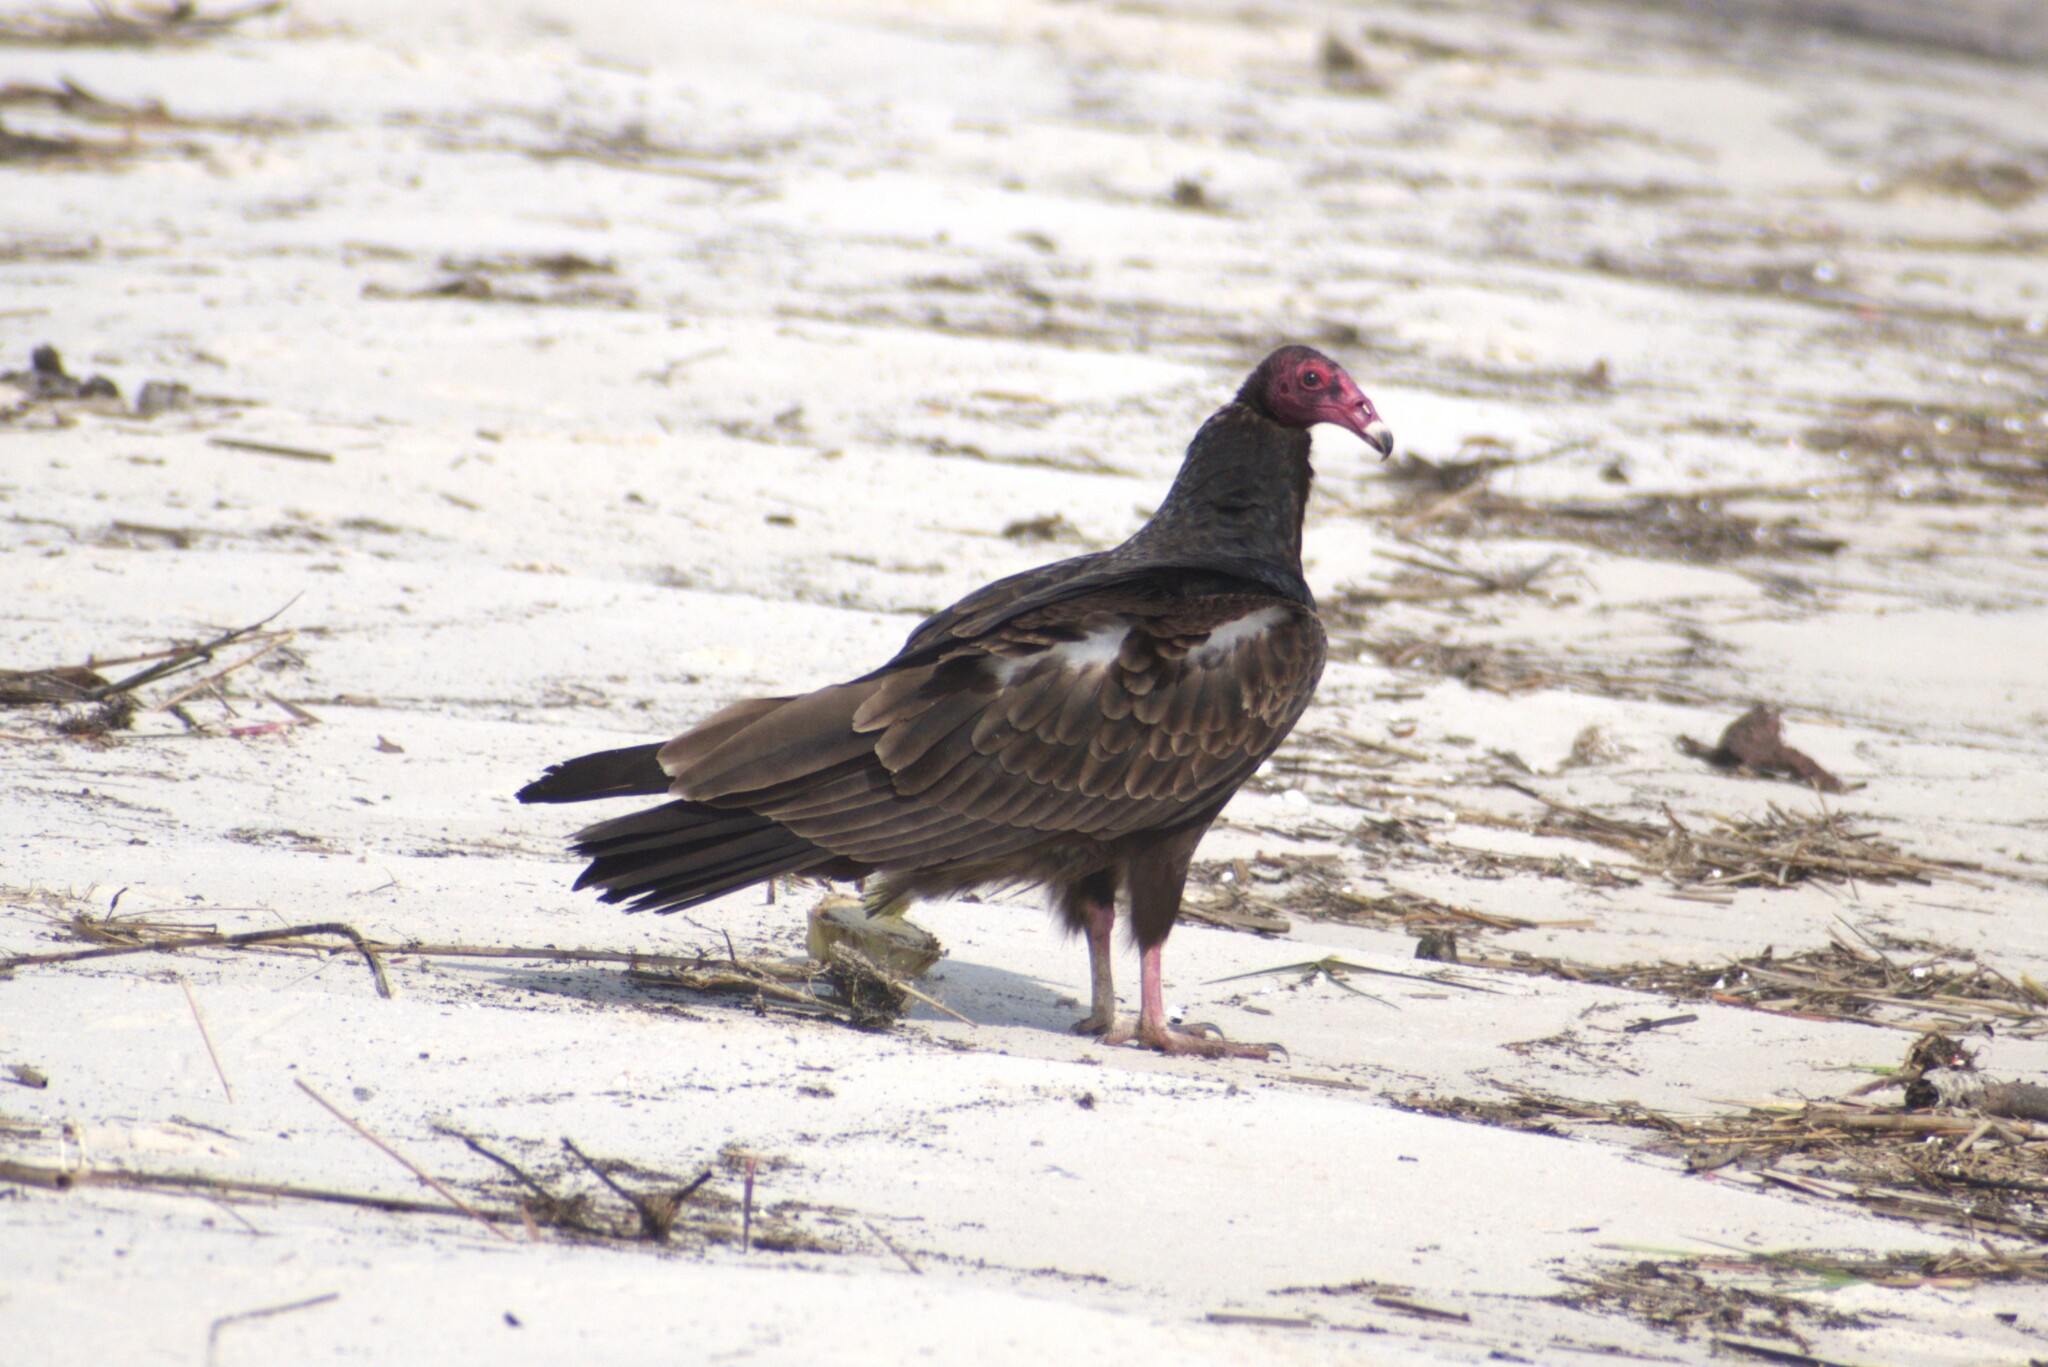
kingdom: Animalia
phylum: Chordata
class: Aves
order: Accipitriformes
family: Cathartidae
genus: Cathartes
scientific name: Cathartes aura
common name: Turkey vulture
